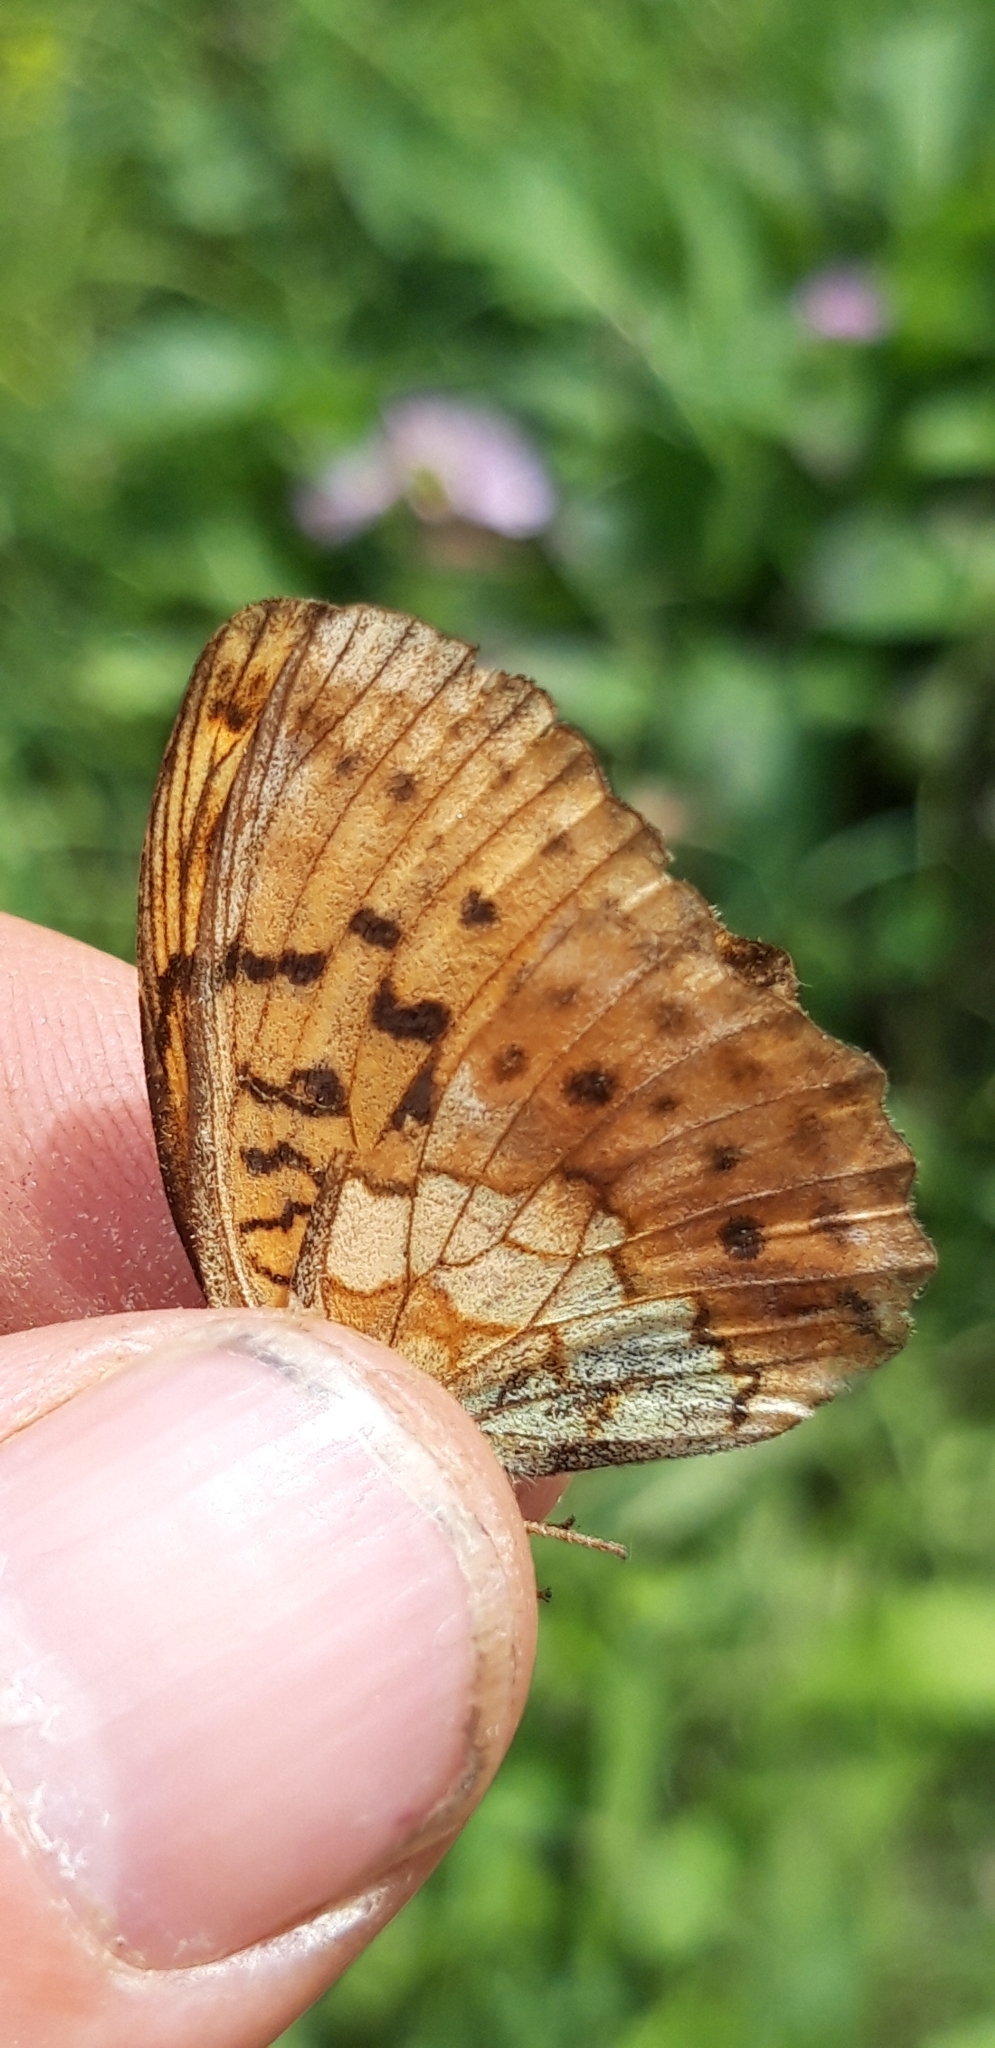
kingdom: Animalia
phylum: Arthropoda
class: Insecta
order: Lepidoptera
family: Nymphalidae
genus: Brenthis
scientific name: Brenthis daphne
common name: Marbled fritillary
